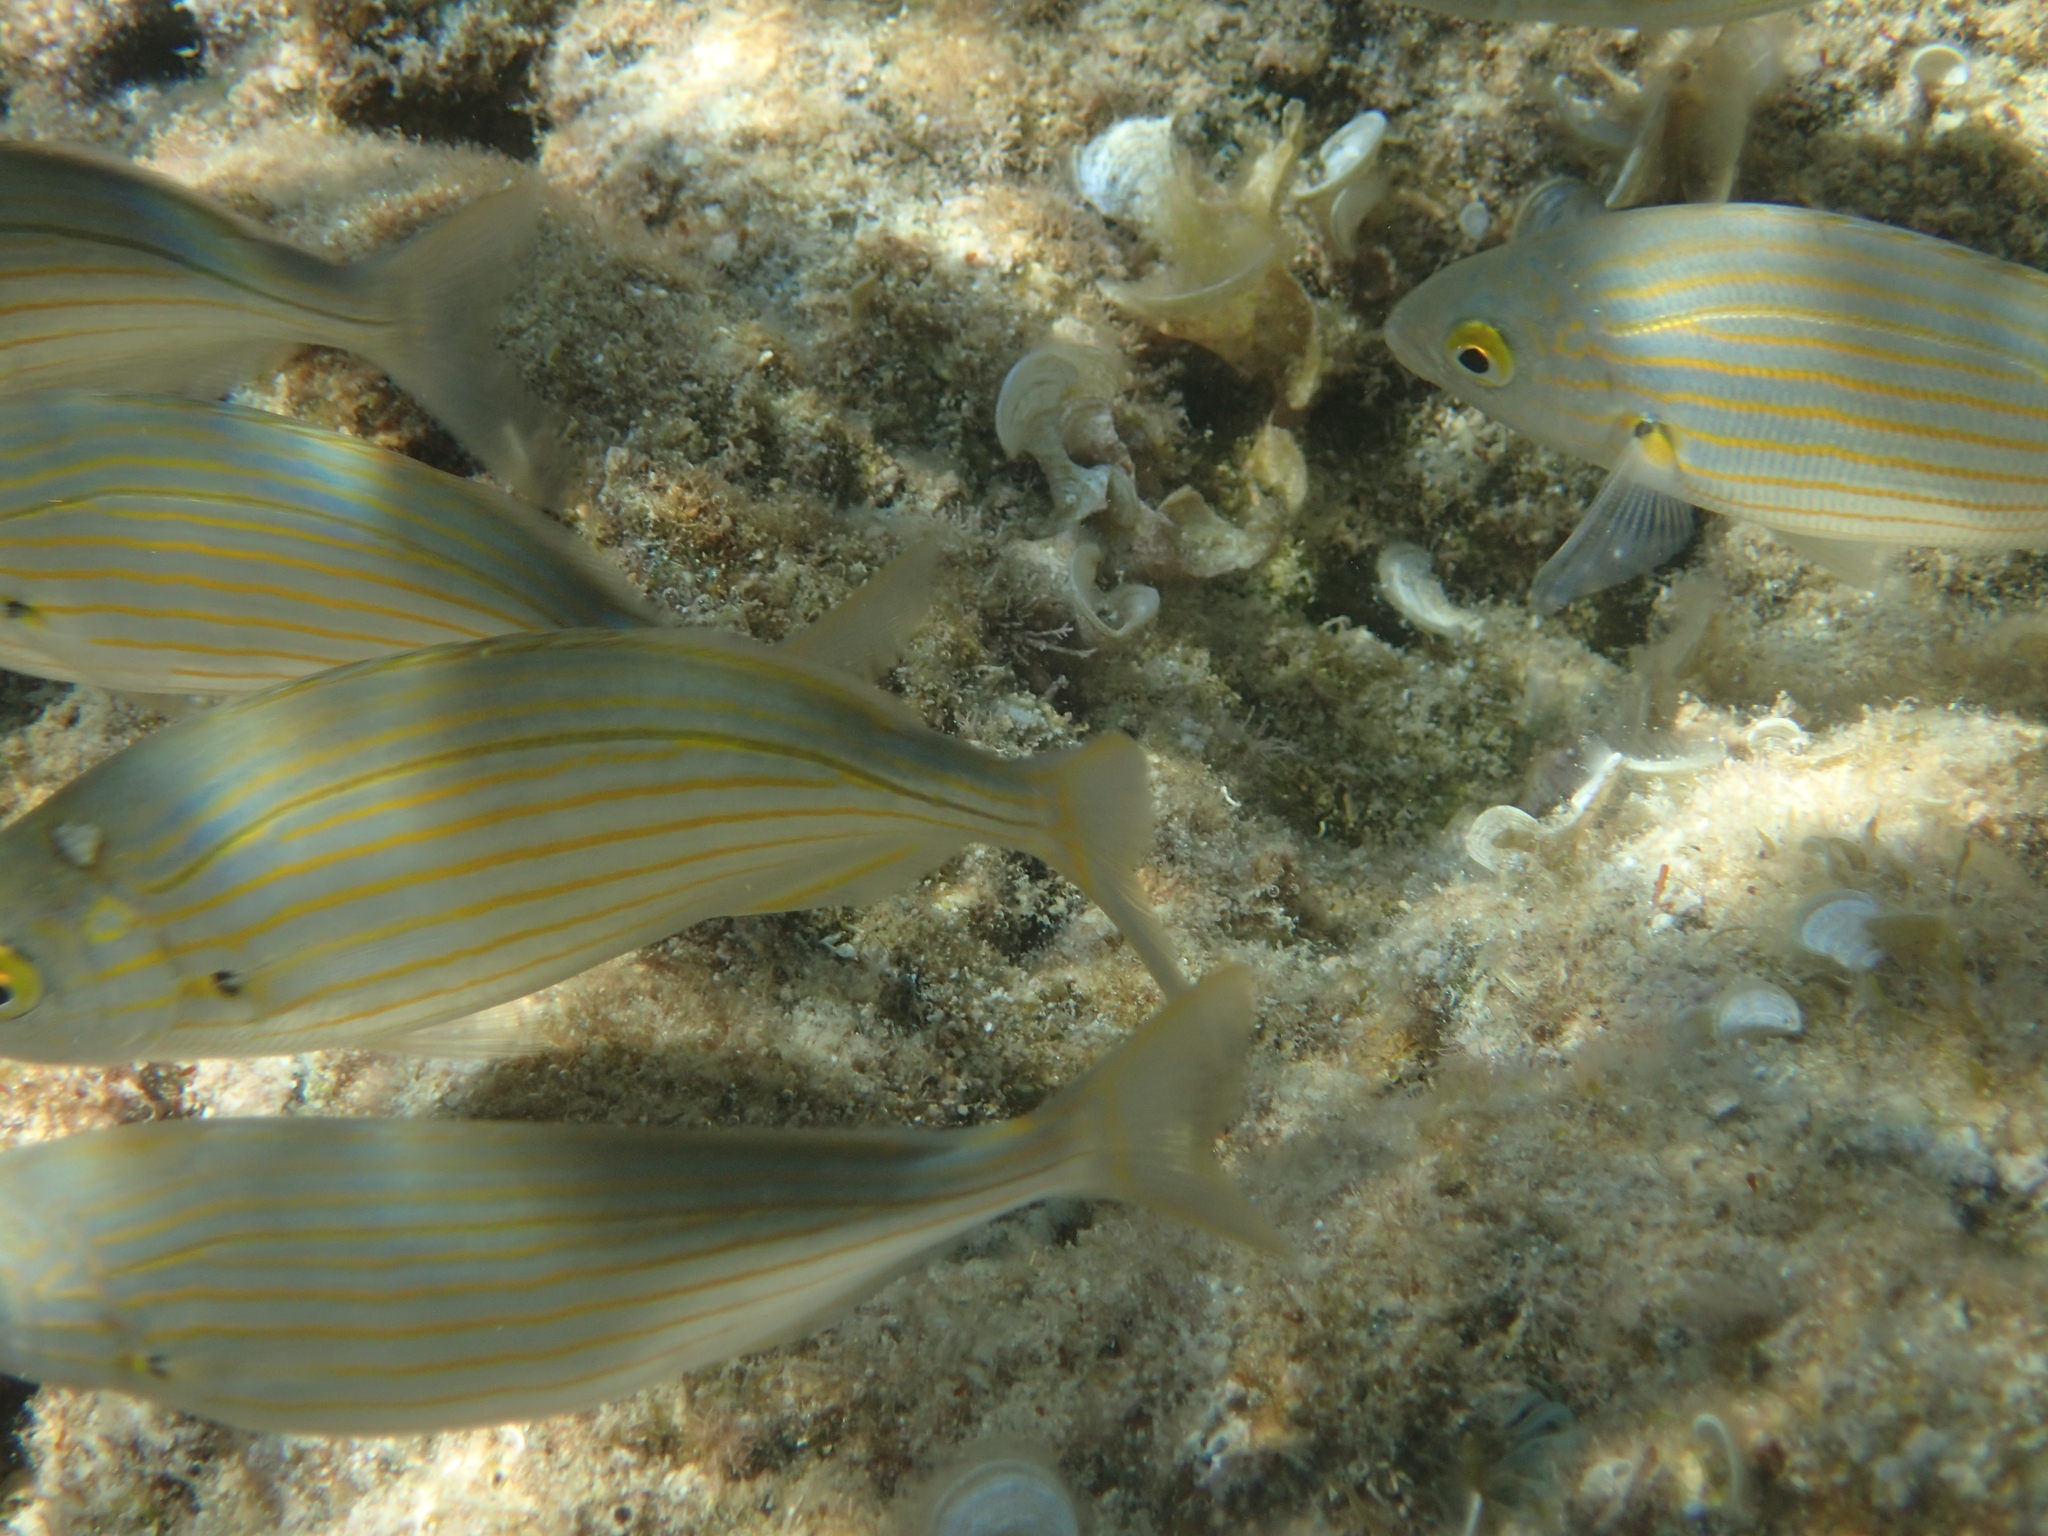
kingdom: Animalia
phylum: Chordata
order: Perciformes
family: Sparidae
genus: Sarpa
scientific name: Sarpa salpa
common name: Salema
